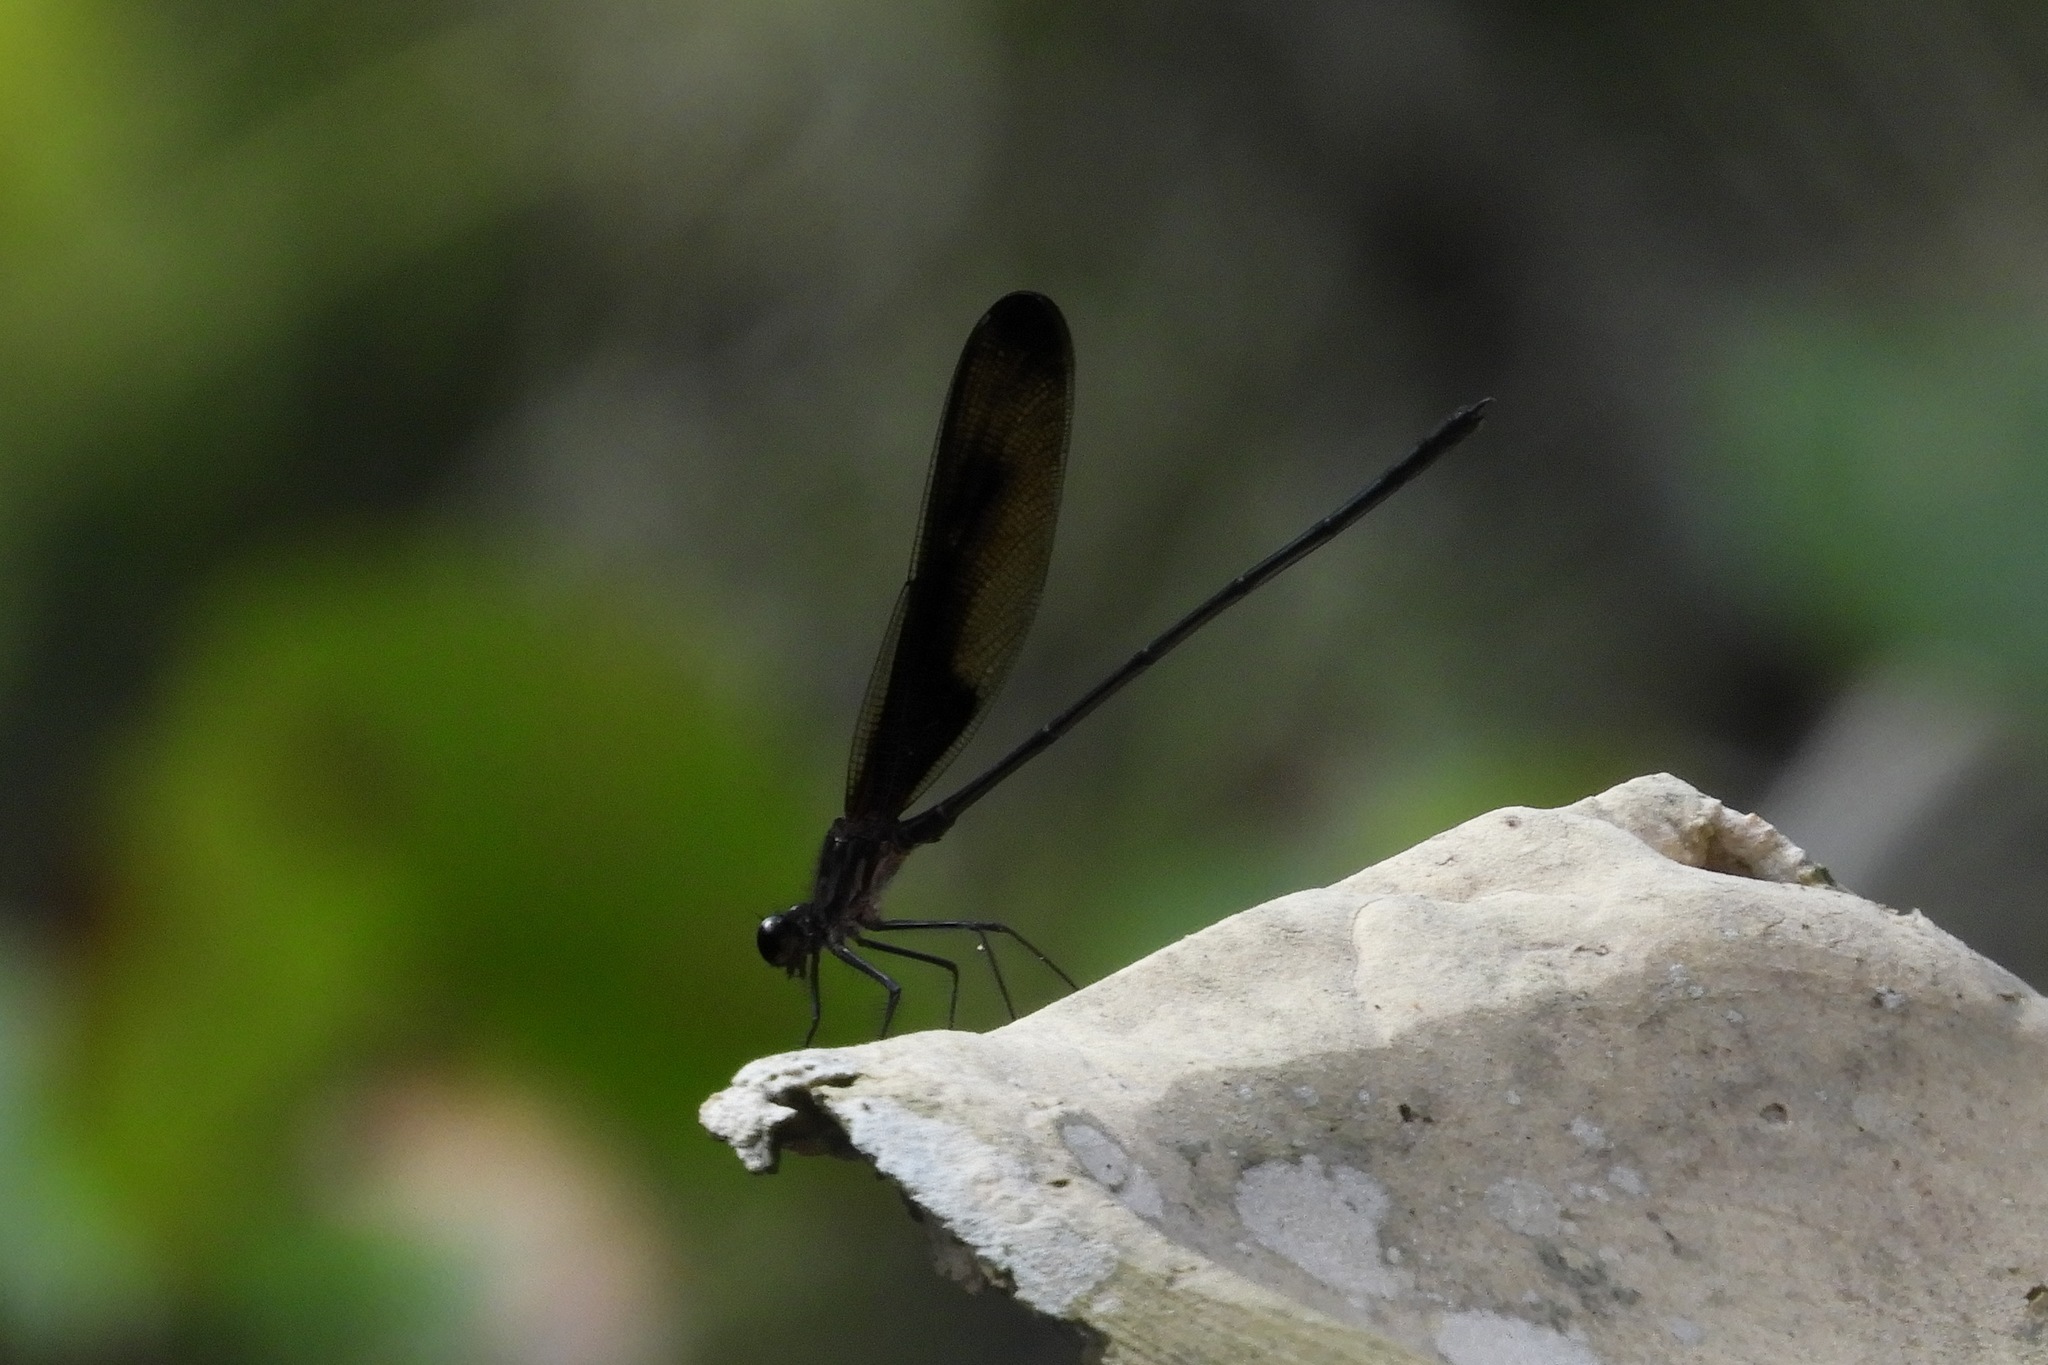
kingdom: Animalia
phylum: Arthropoda
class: Insecta
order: Odonata
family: Calopterygidae
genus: Hetaerina
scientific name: Hetaerina titia
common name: Smoky rubyspot
